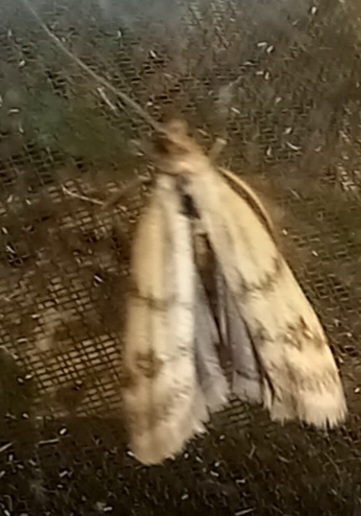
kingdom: Animalia
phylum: Arthropoda
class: Insecta
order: Lepidoptera
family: Pyralidae
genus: Homoeosoma
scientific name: Homoeosoma sinuella
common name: Twin-barred knot-horn
